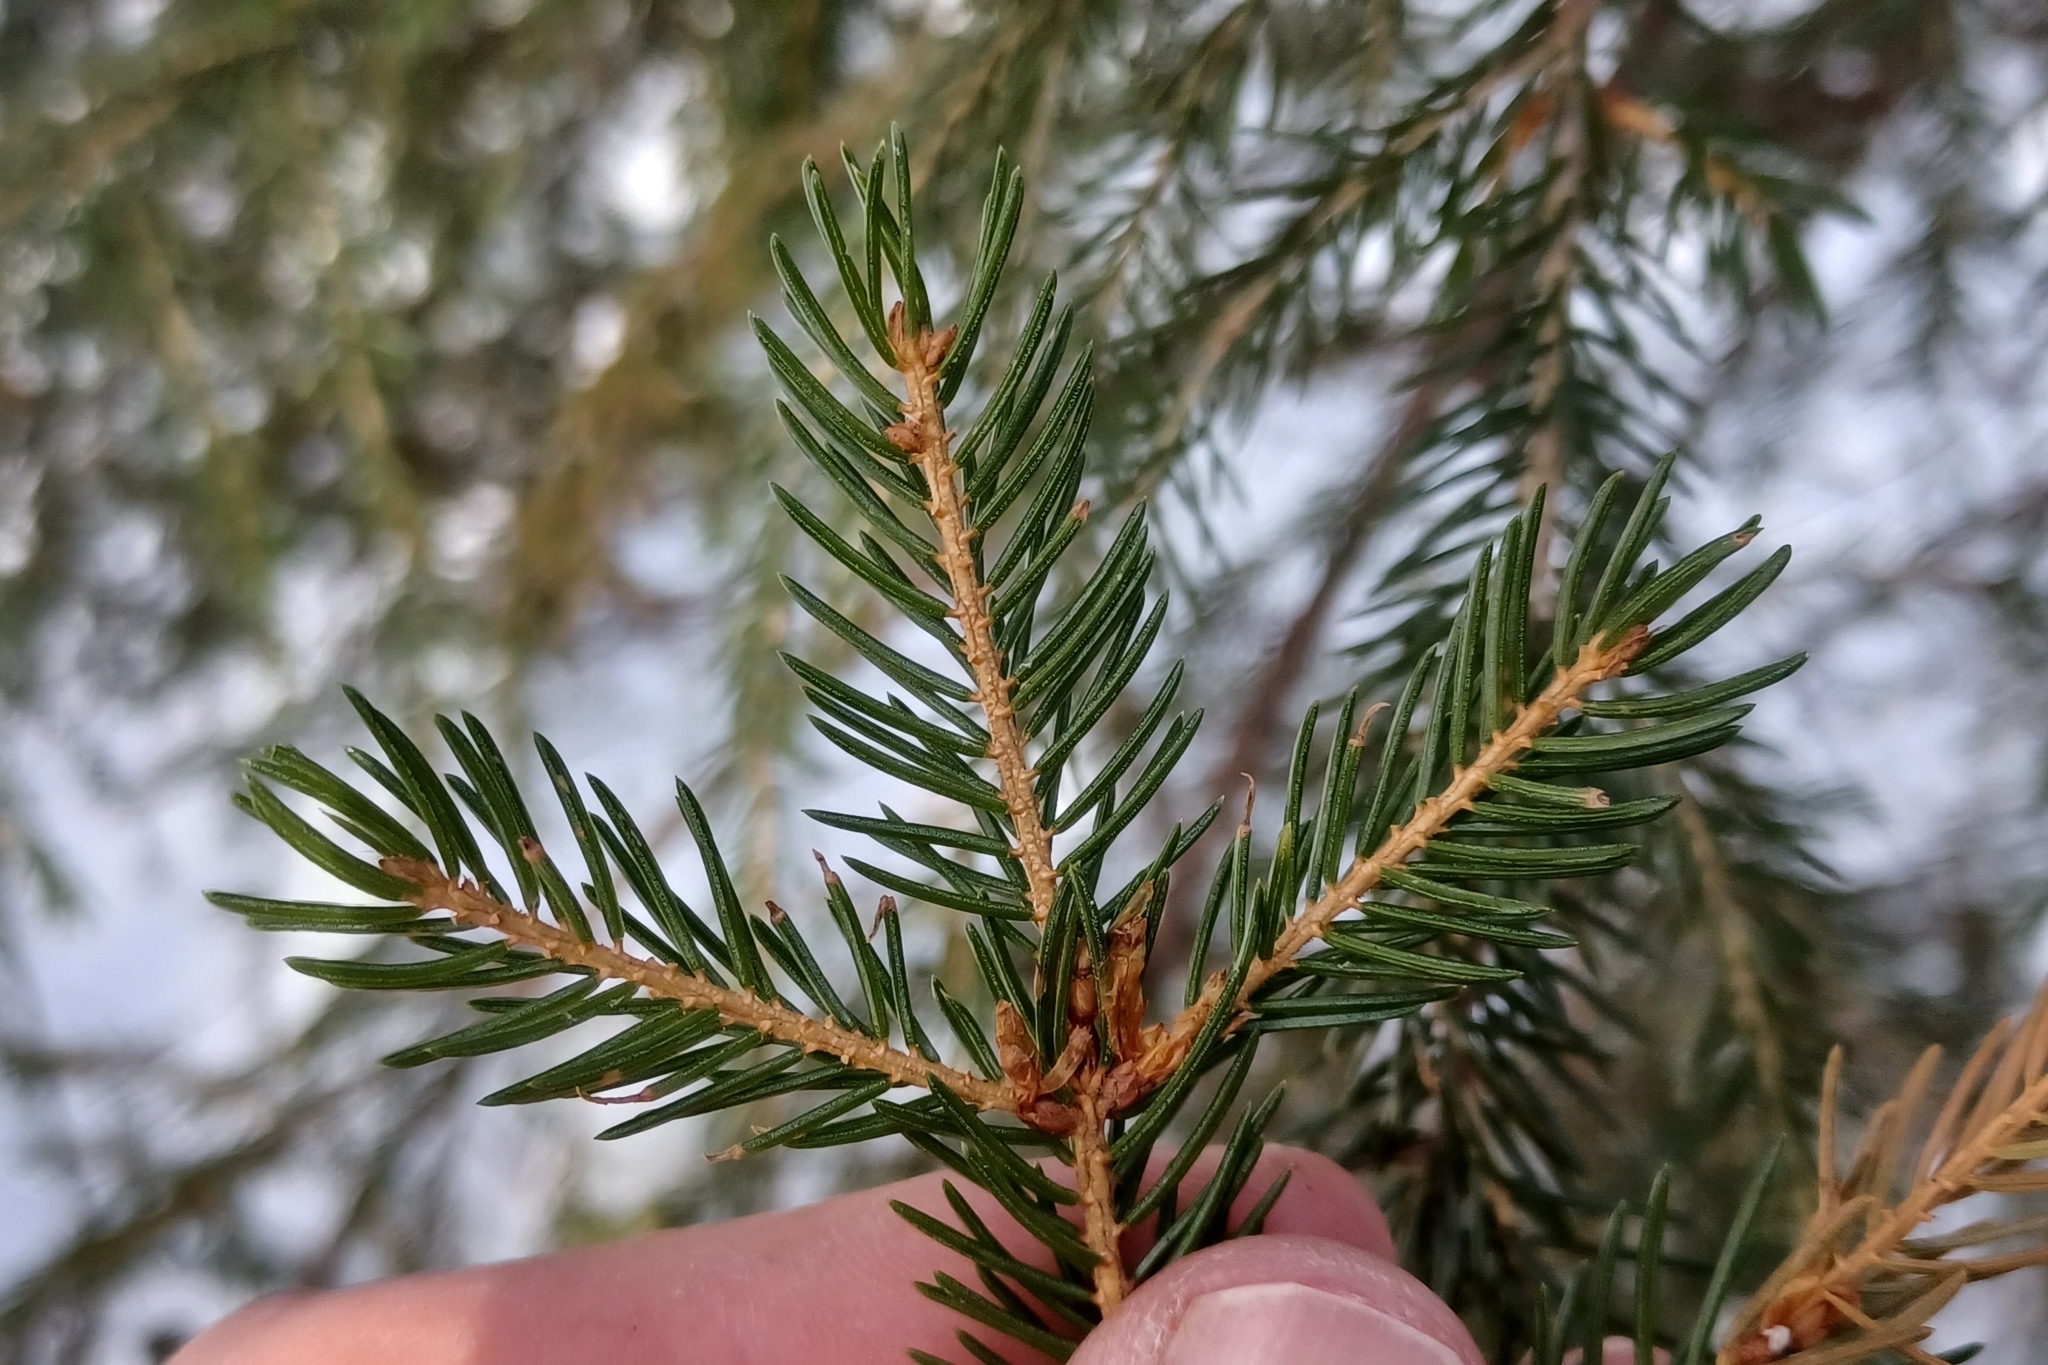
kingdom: Plantae
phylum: Tracheophyta
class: Pinopsida
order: Pinales
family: Pinaceae
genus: Picea
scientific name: Picea rubens
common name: Red spruce
